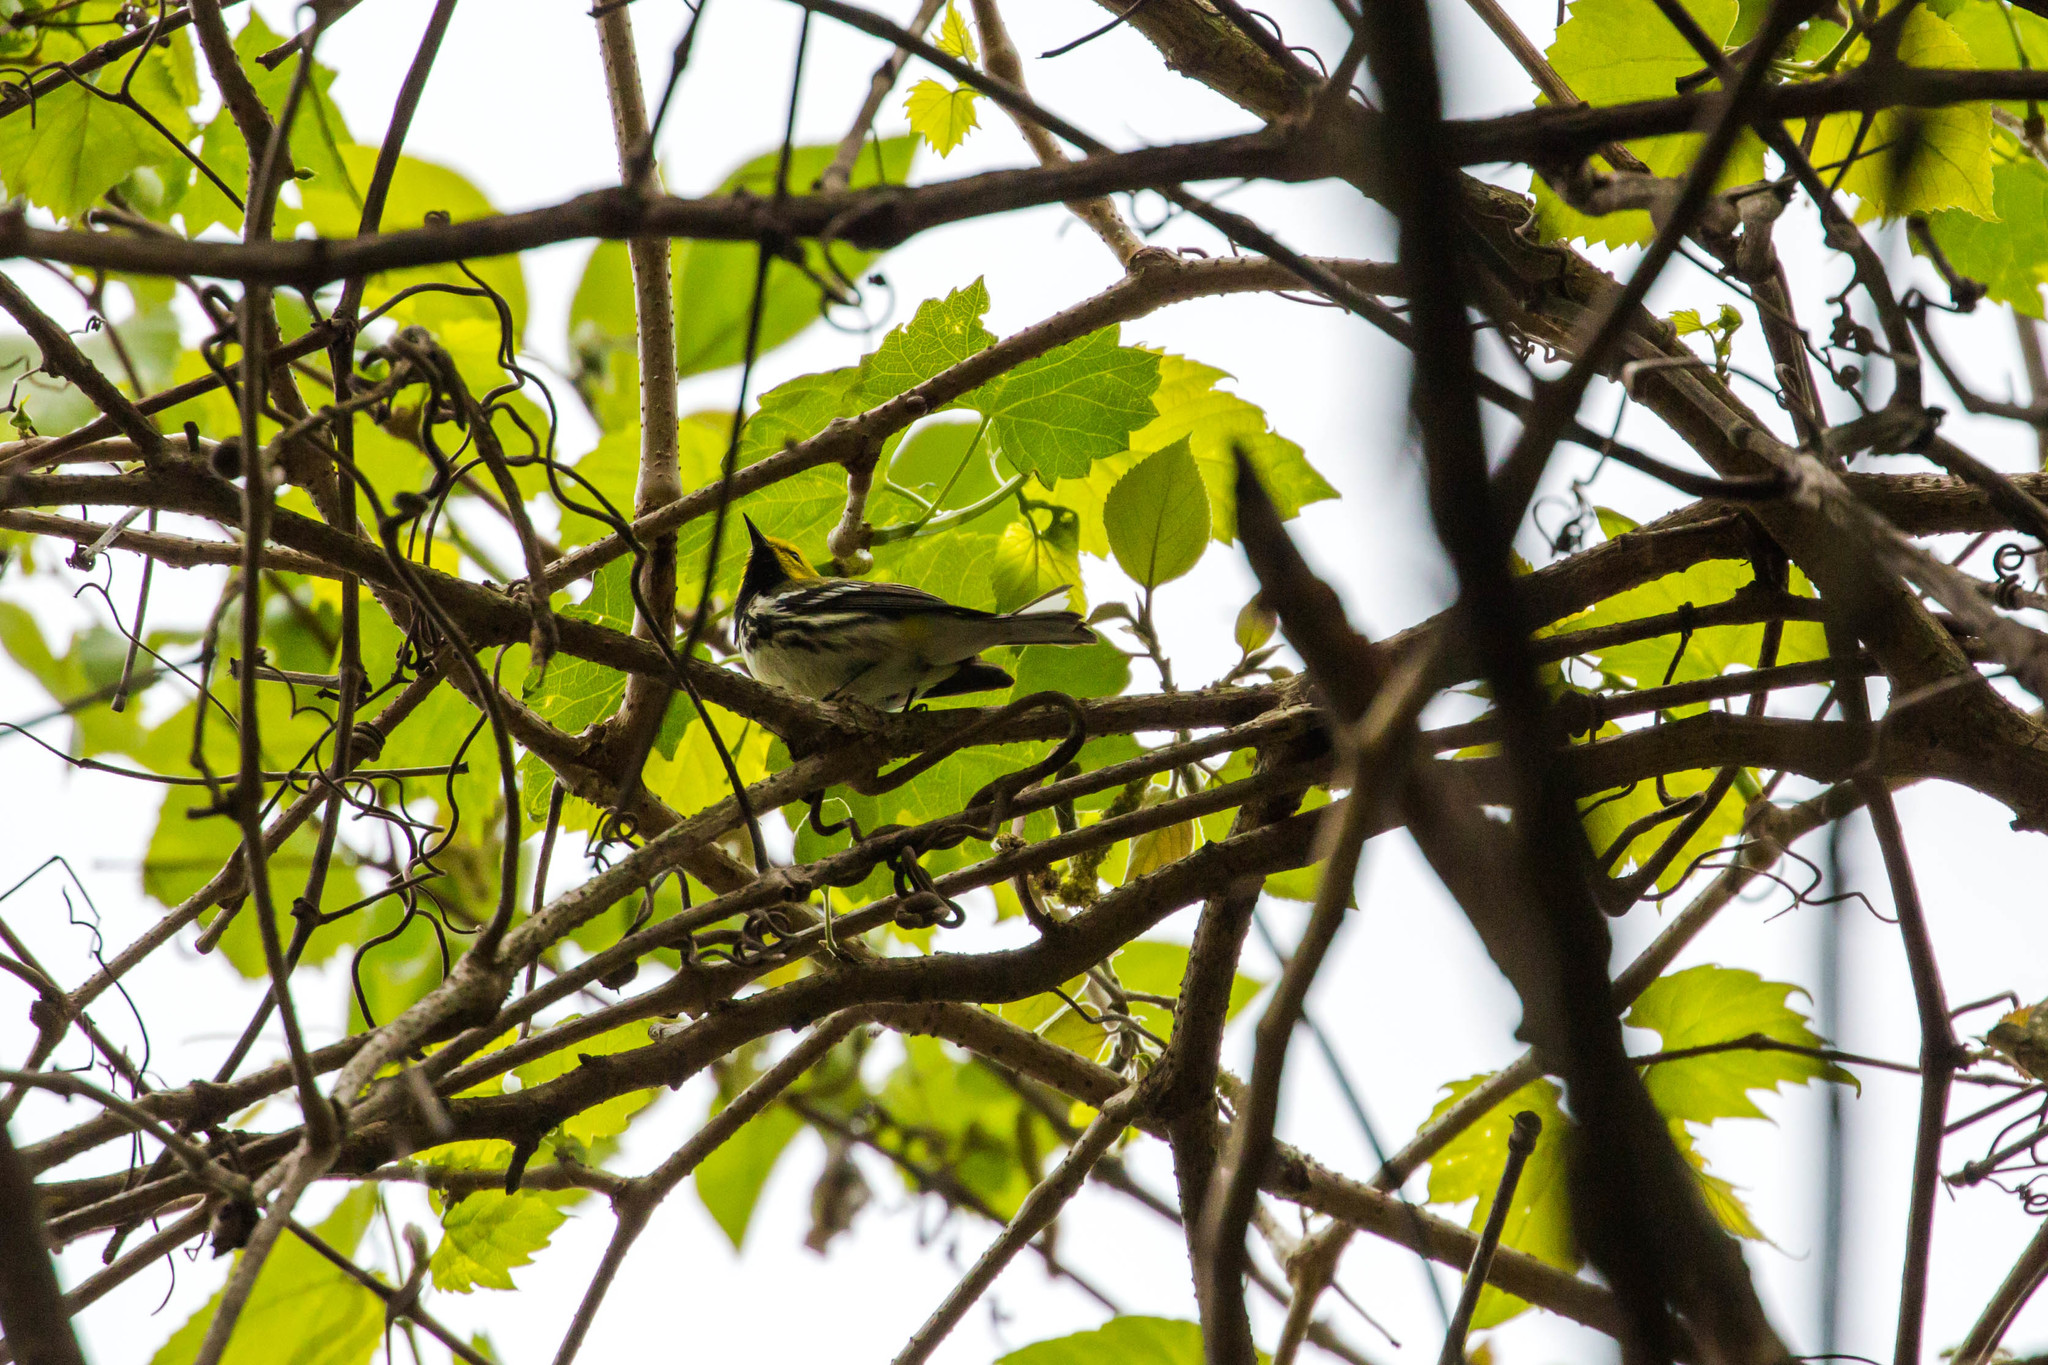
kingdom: Animalia
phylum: Chordata
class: Aves
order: Passeriformes
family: Parulidae
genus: Setophaga
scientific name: Setophaga virens
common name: Black-throated green warbler
